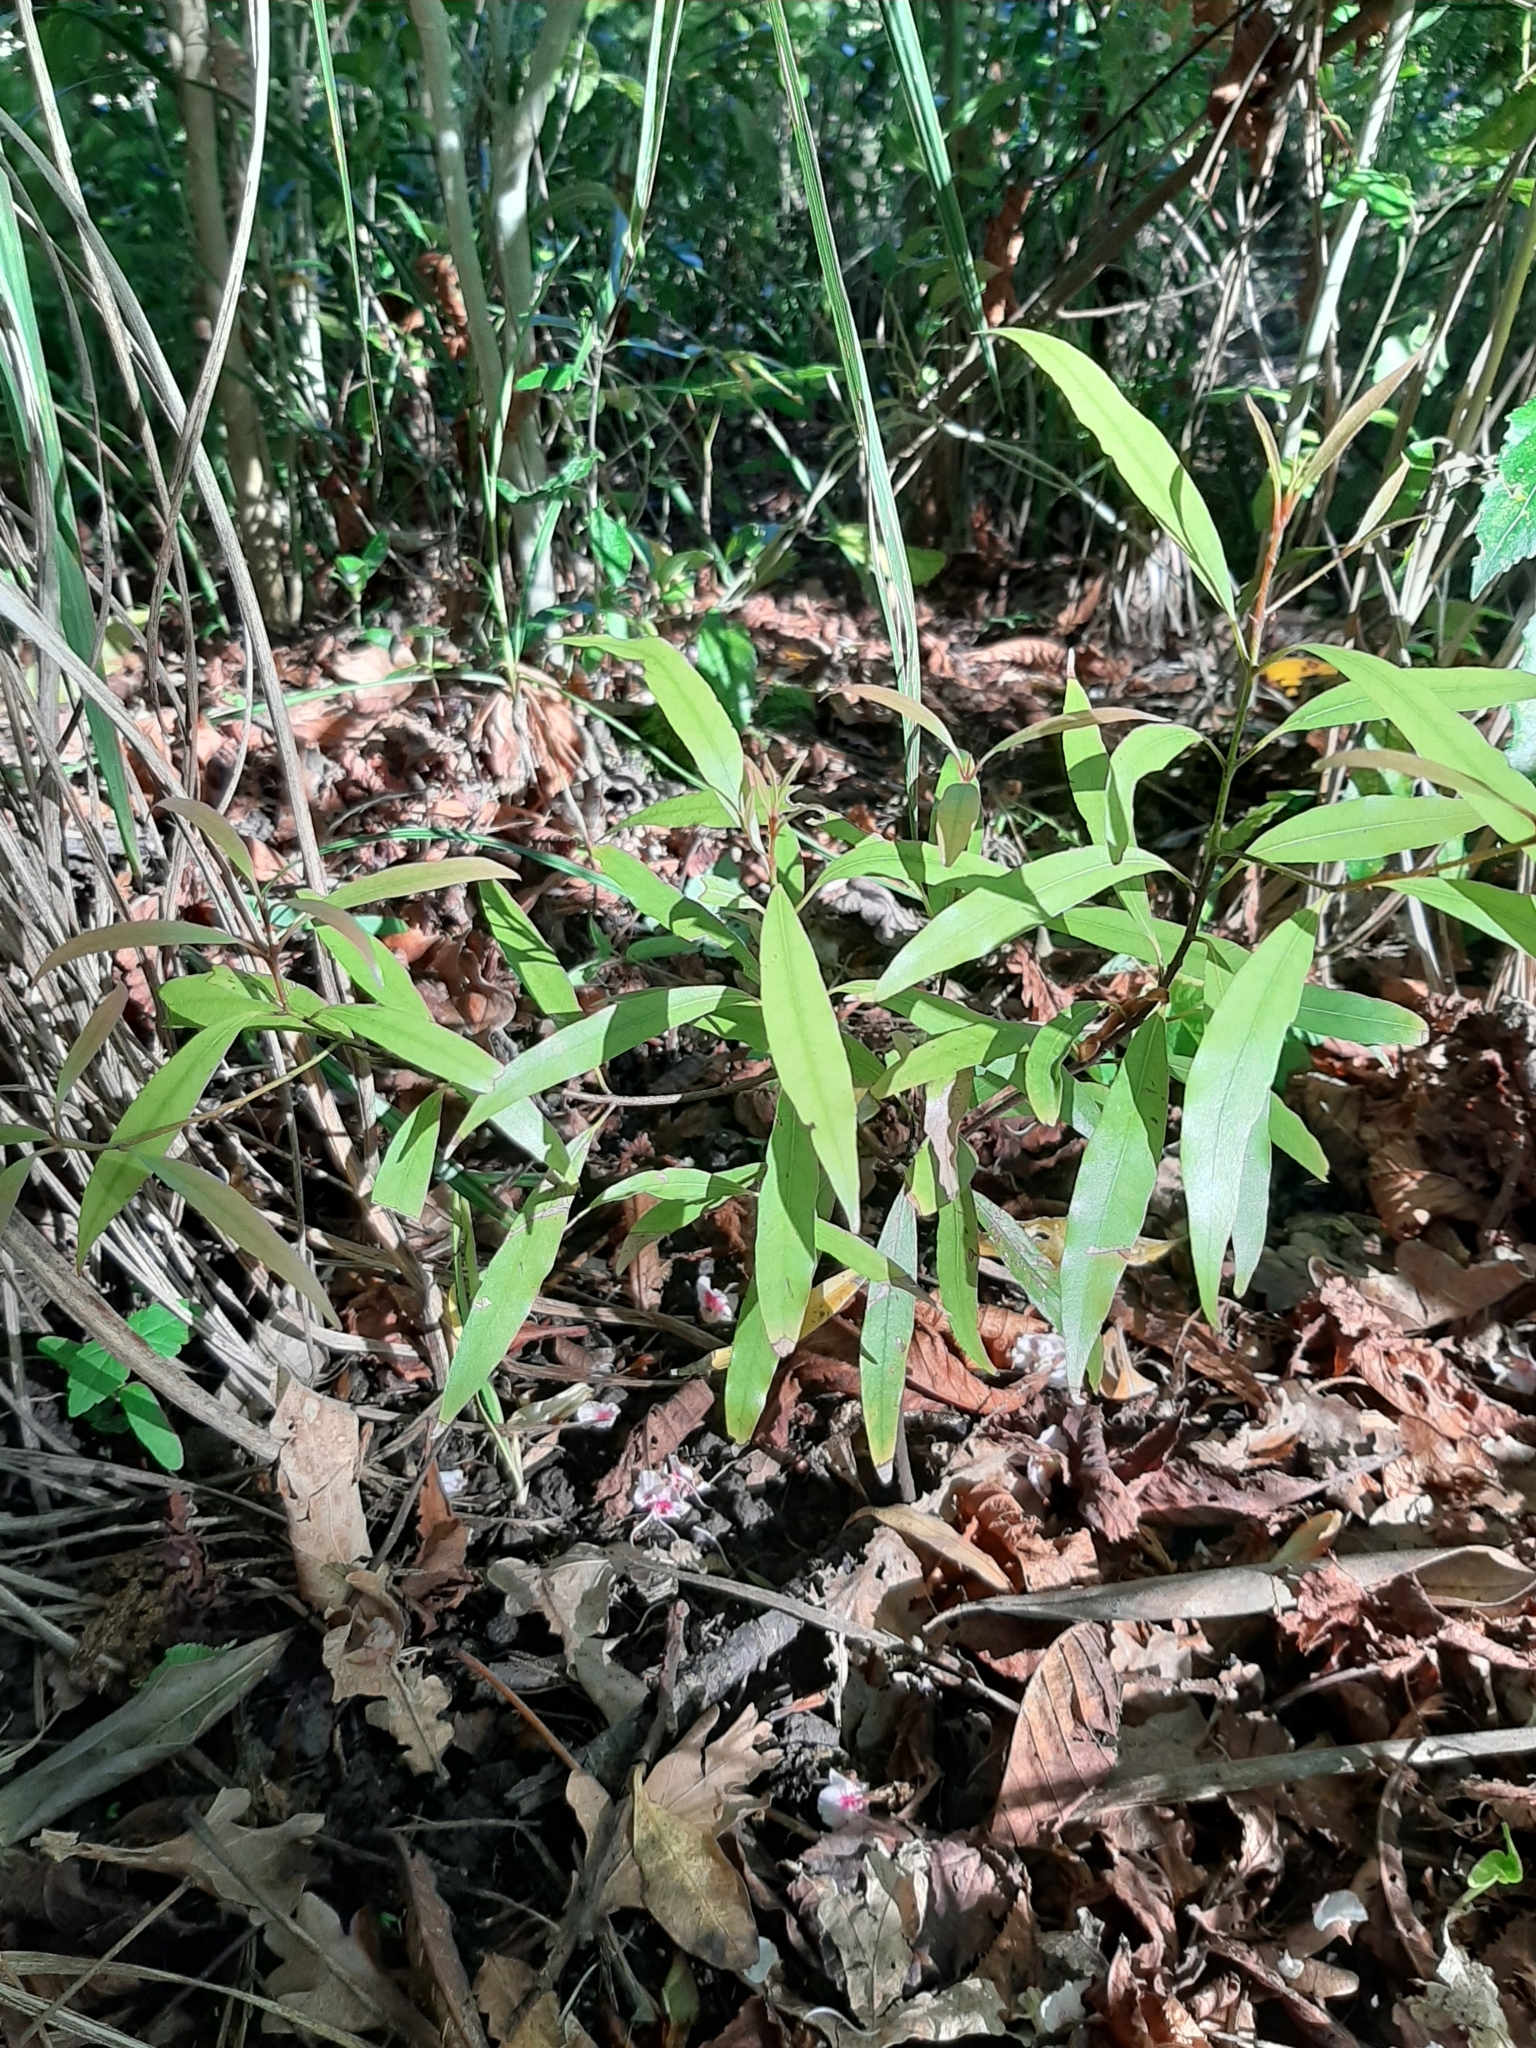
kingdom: Plantae
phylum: Tracheophyta
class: Magnoliopsida
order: Laurales
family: Lauraceae
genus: Beilschmiedia
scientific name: Beilschmiedia tawa
